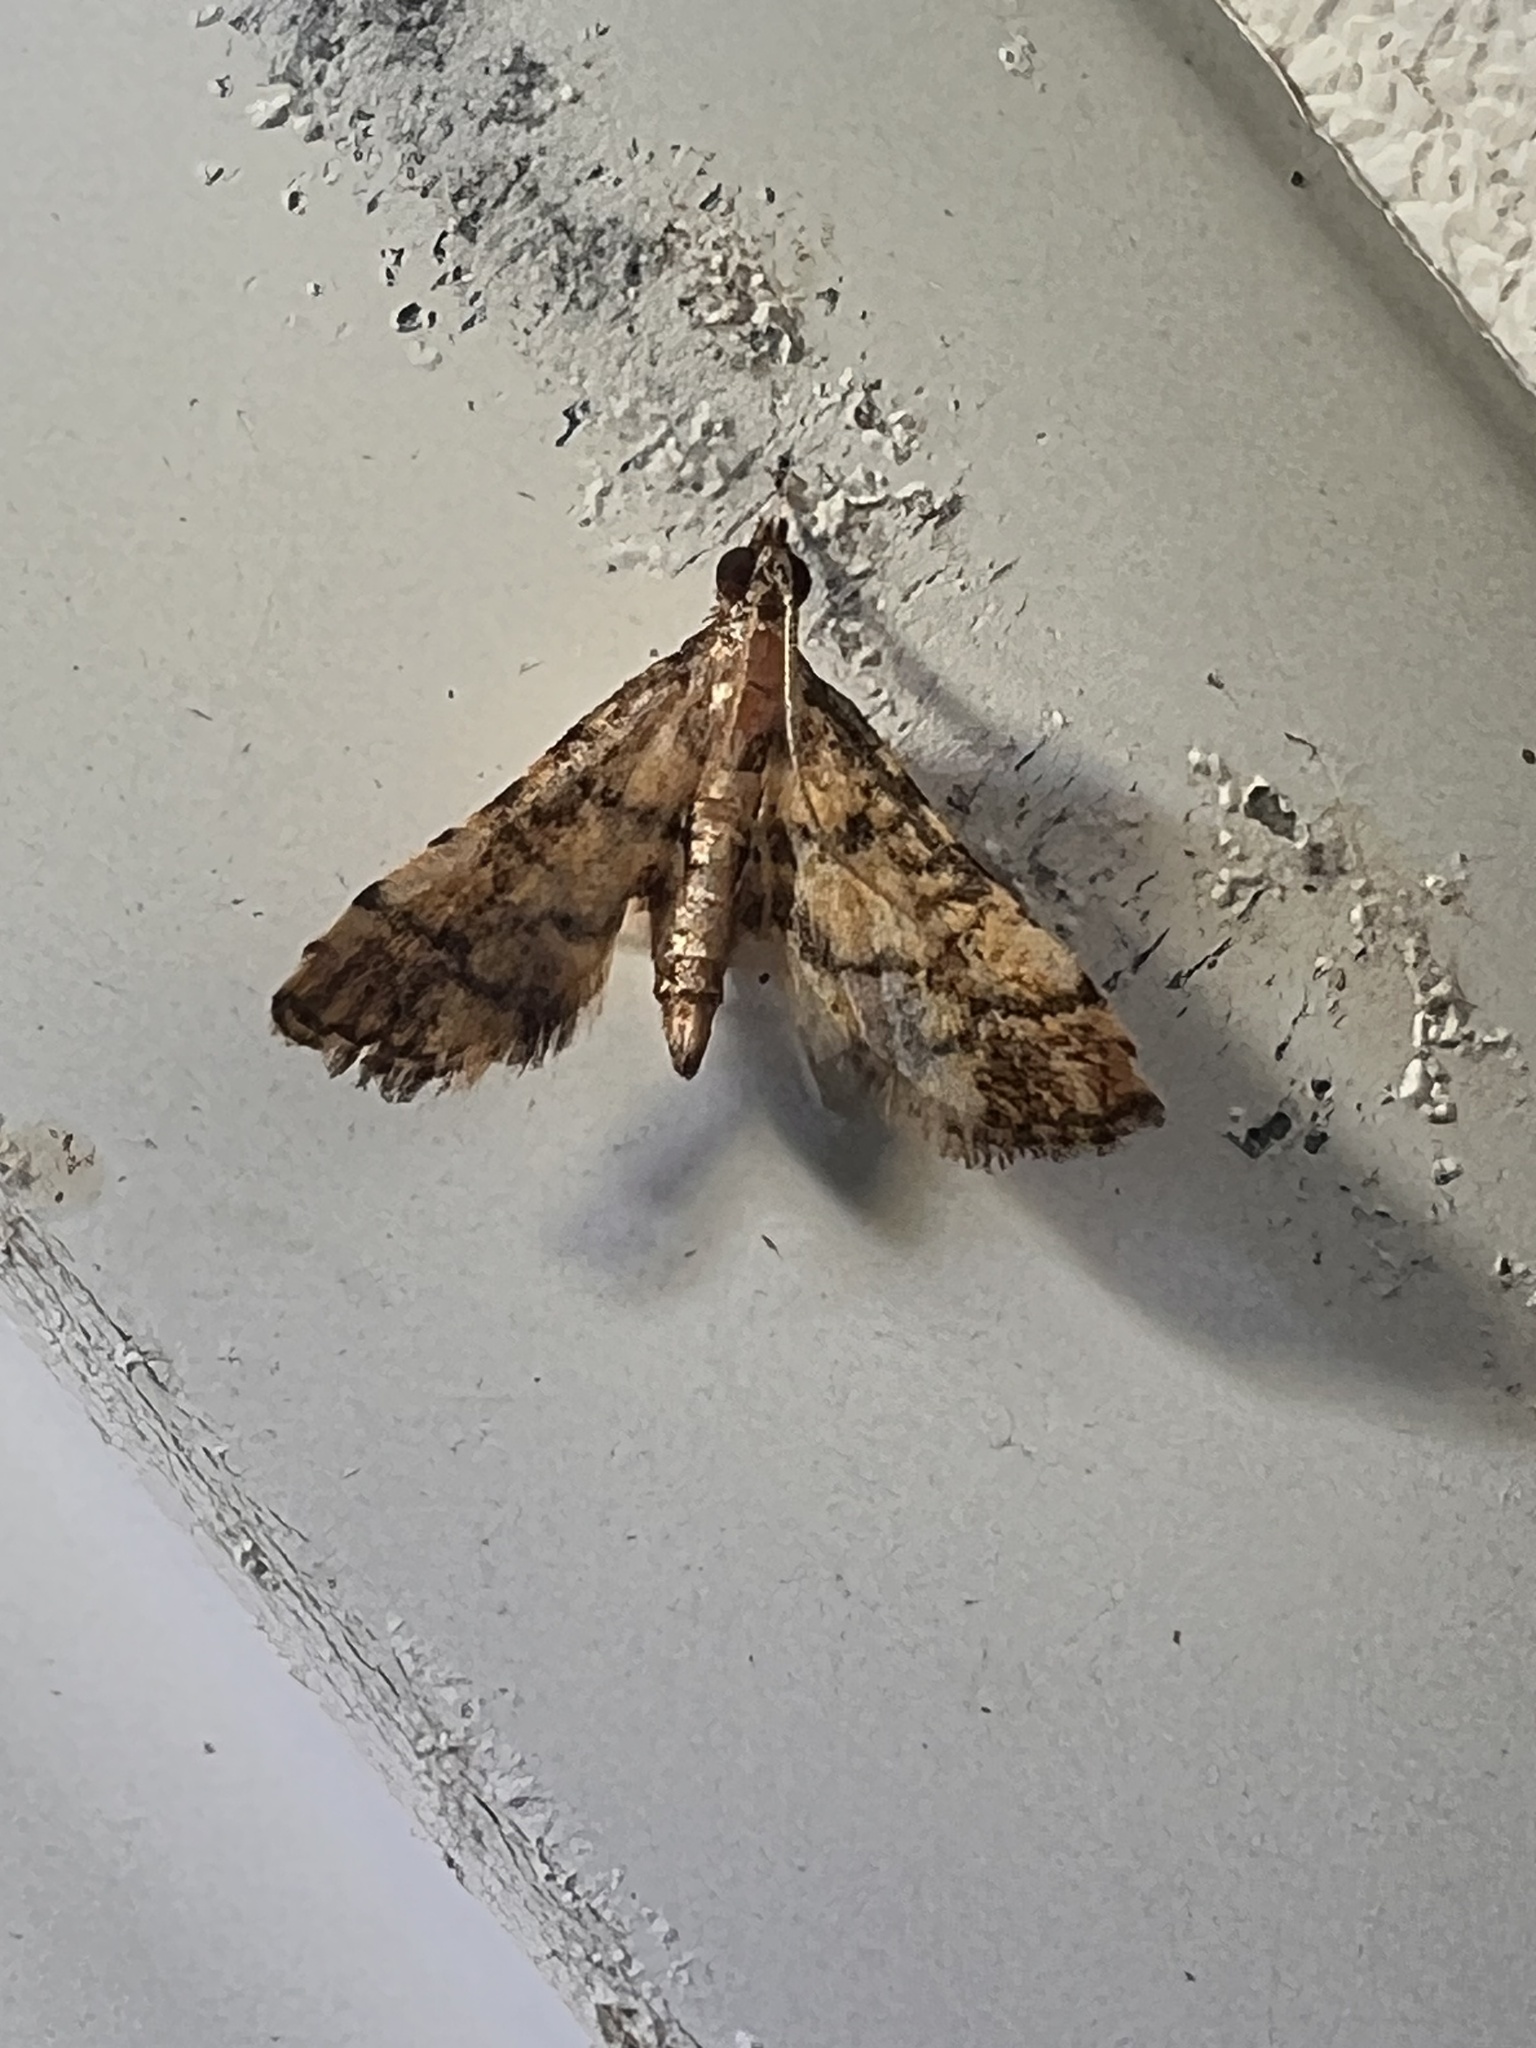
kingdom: Animalia
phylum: Arthropoda
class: Insecta
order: Lepidoptera
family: Crambidae
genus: Metasia
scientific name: Metasia tiasalis
